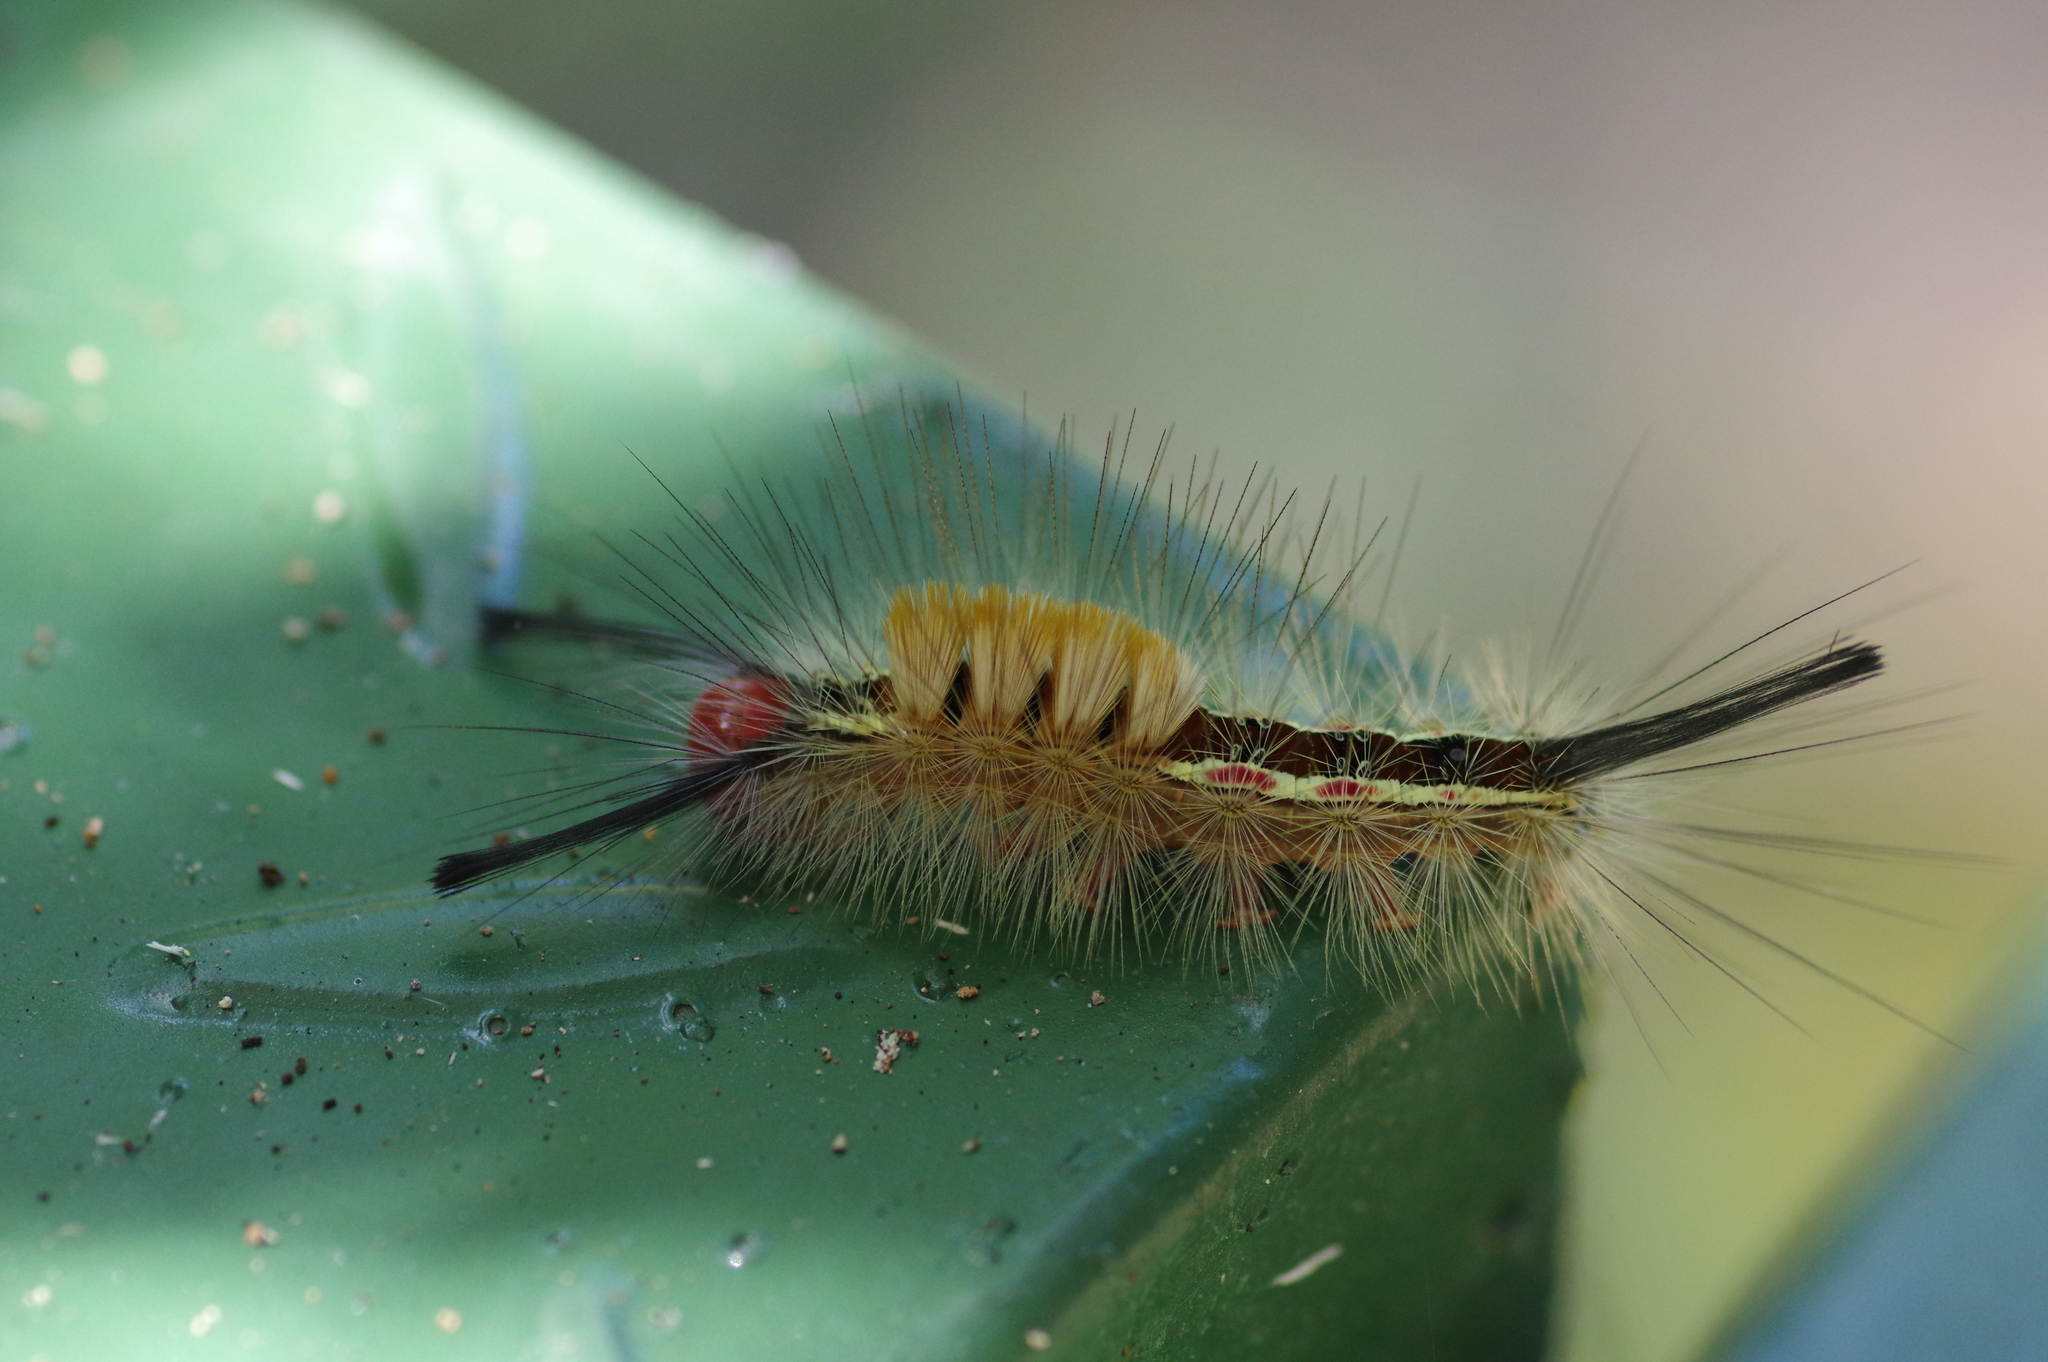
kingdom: Animalia
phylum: Arthropoda
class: Insecta
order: Lepidoptera
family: Erebidae
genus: Olene
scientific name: Olene mendosa
